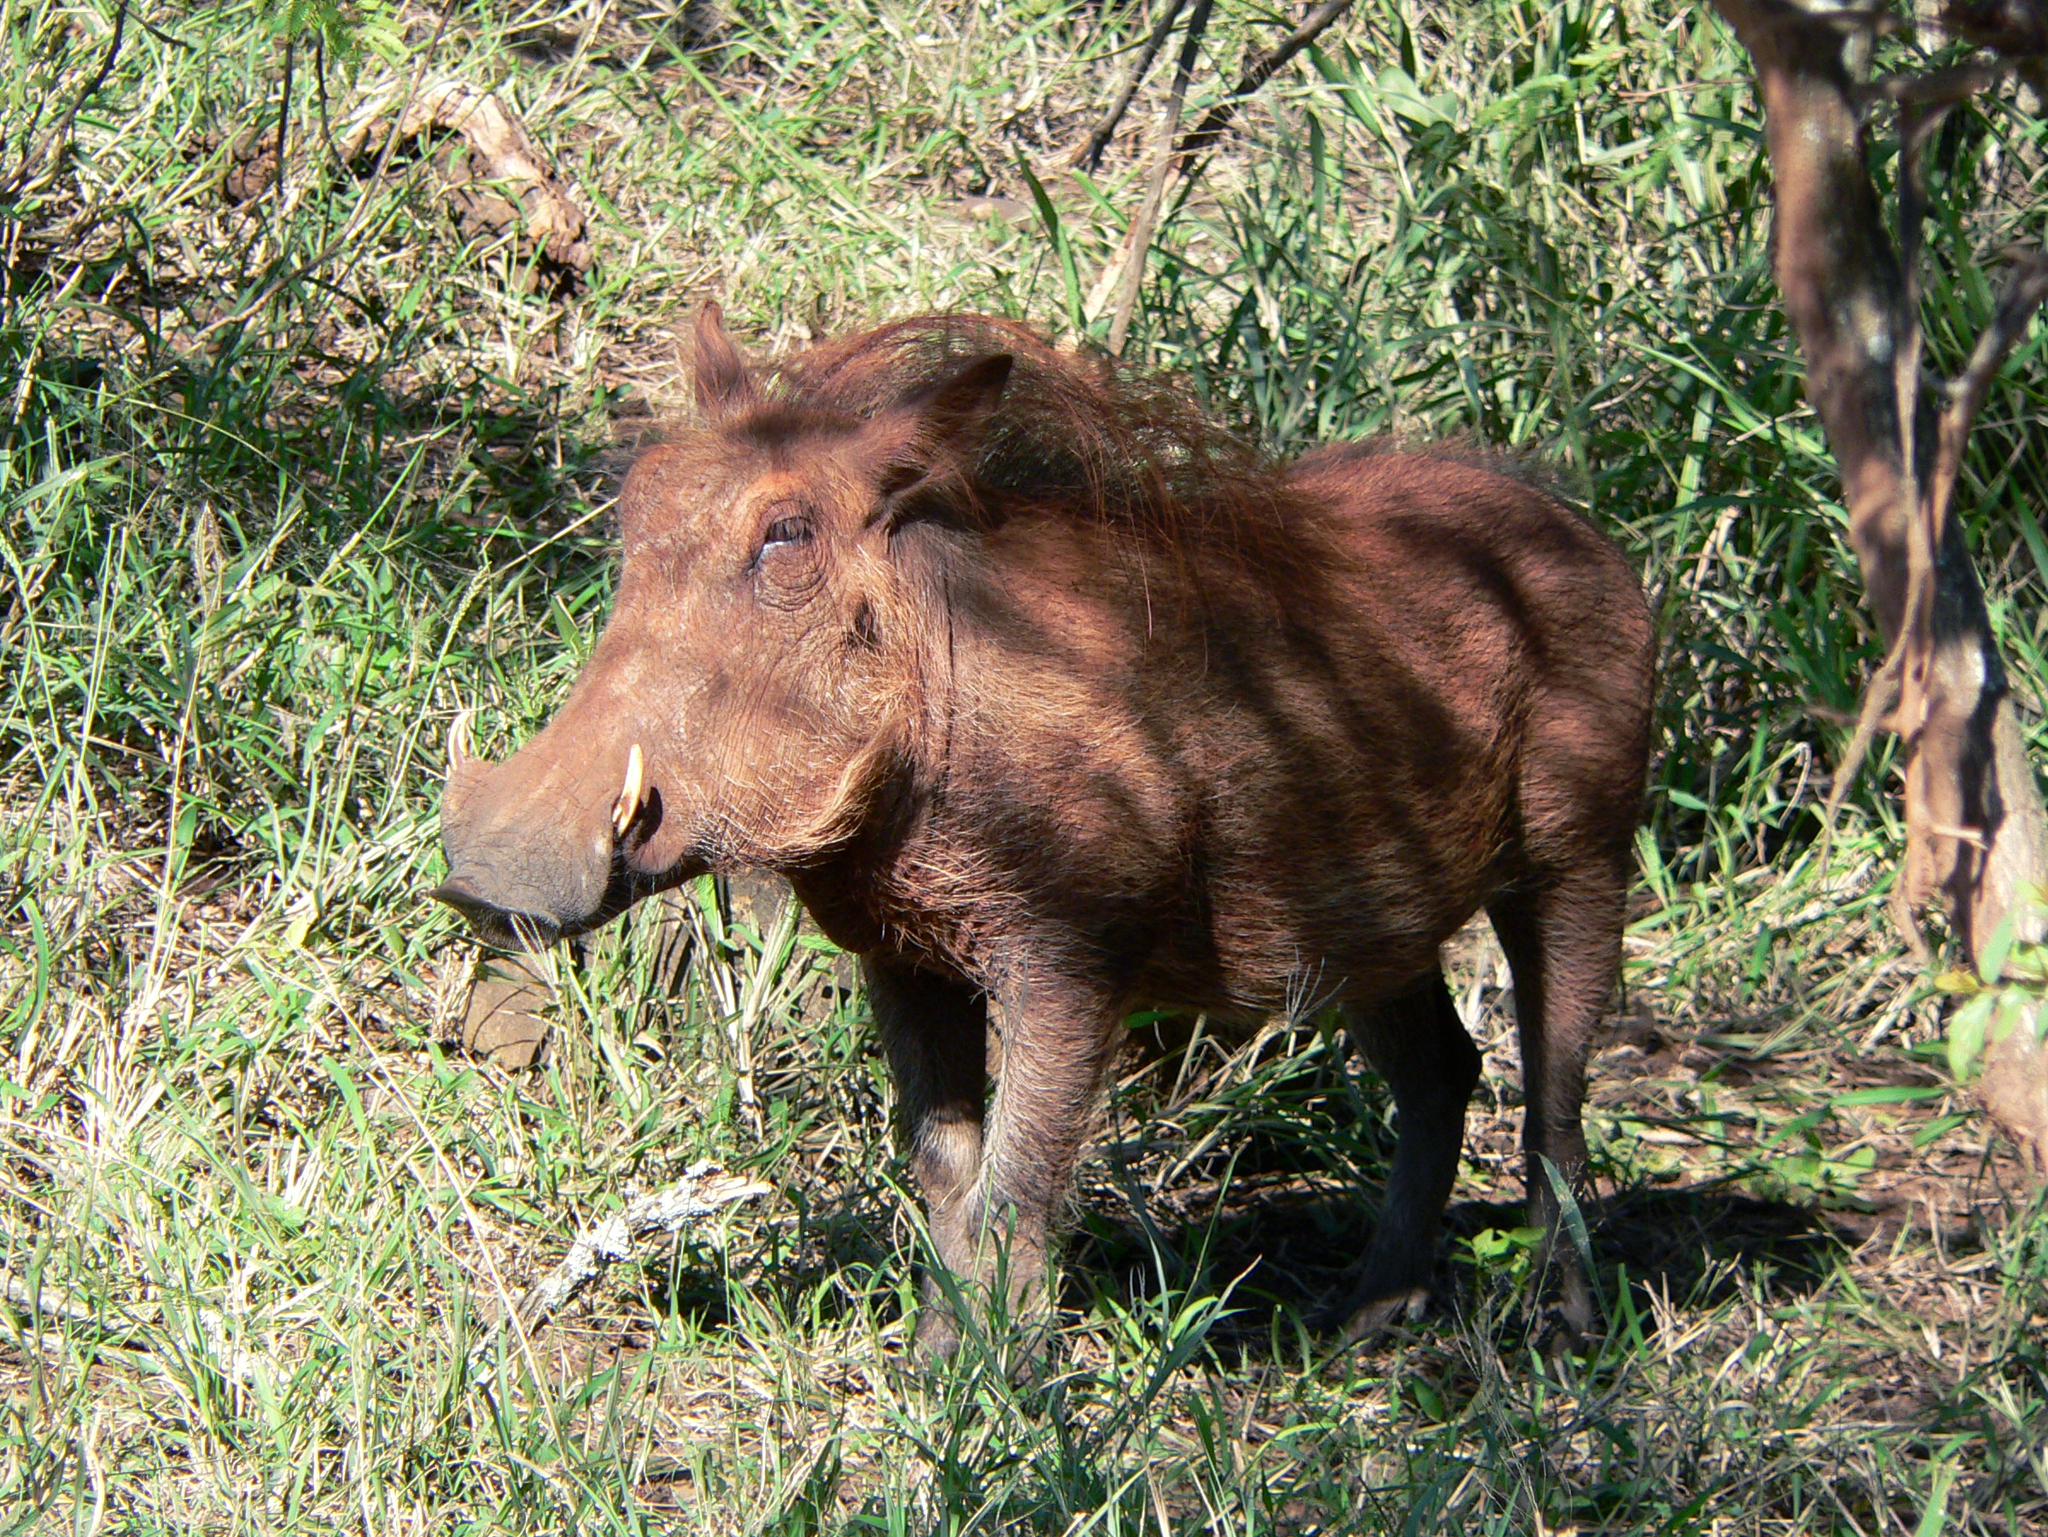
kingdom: Animalia
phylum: Chordata
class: Mammalia
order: Artiodactyla
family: Suidae
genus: Phacochoerus
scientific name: Phacochoerus africanus
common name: Common warthog
